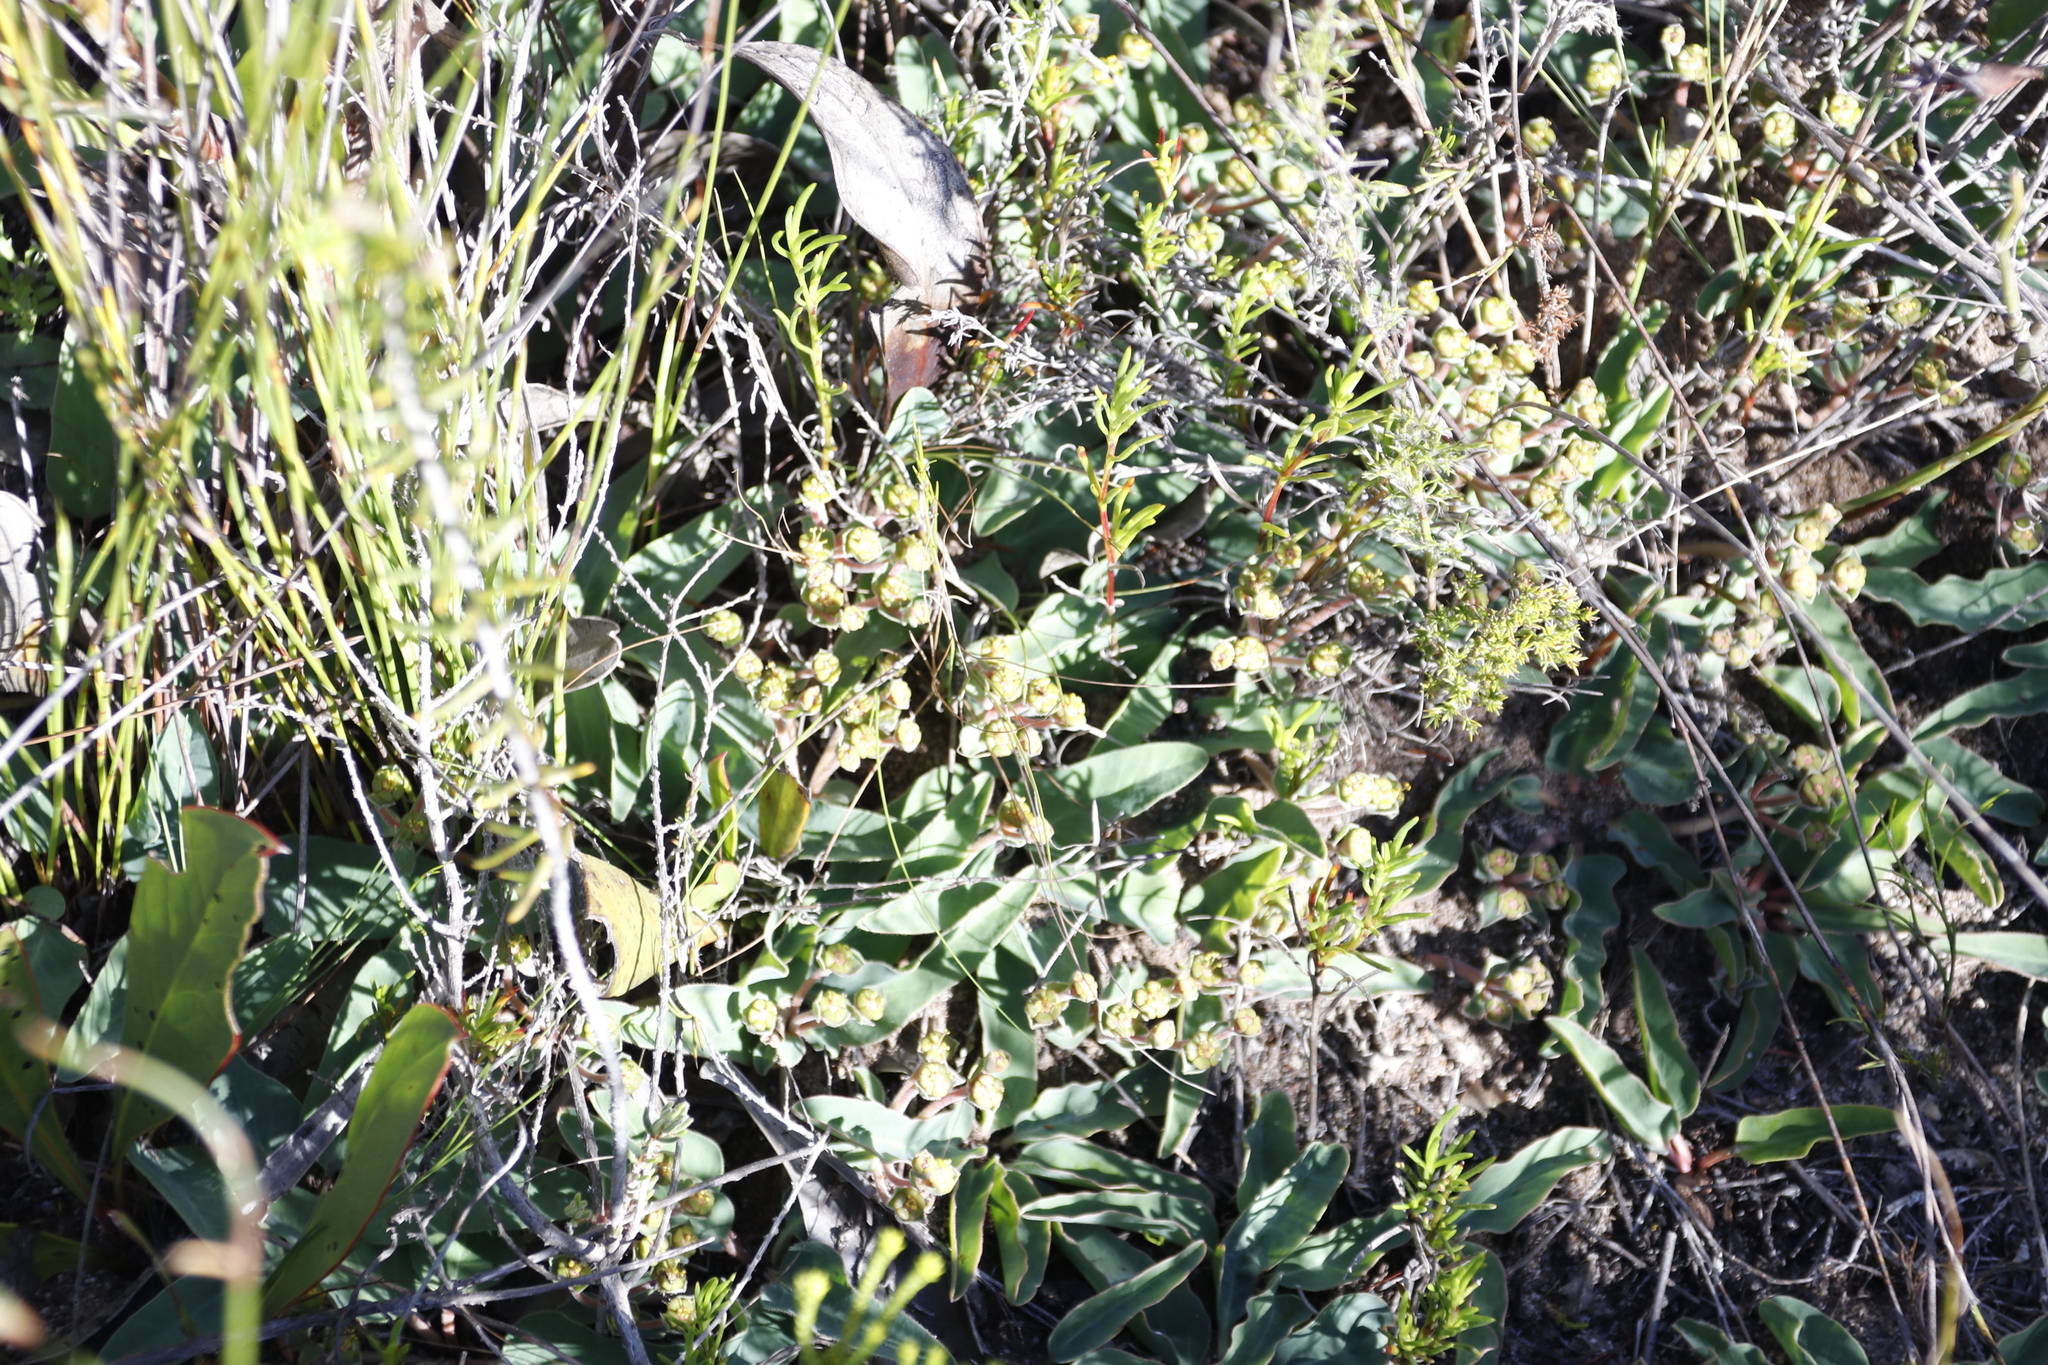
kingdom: Plantae
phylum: Tracheophyta
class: Magnoliopsida
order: Malpighiales
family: Euphorbiaceae
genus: Euphorbia
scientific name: Euphorbia tuberosa
